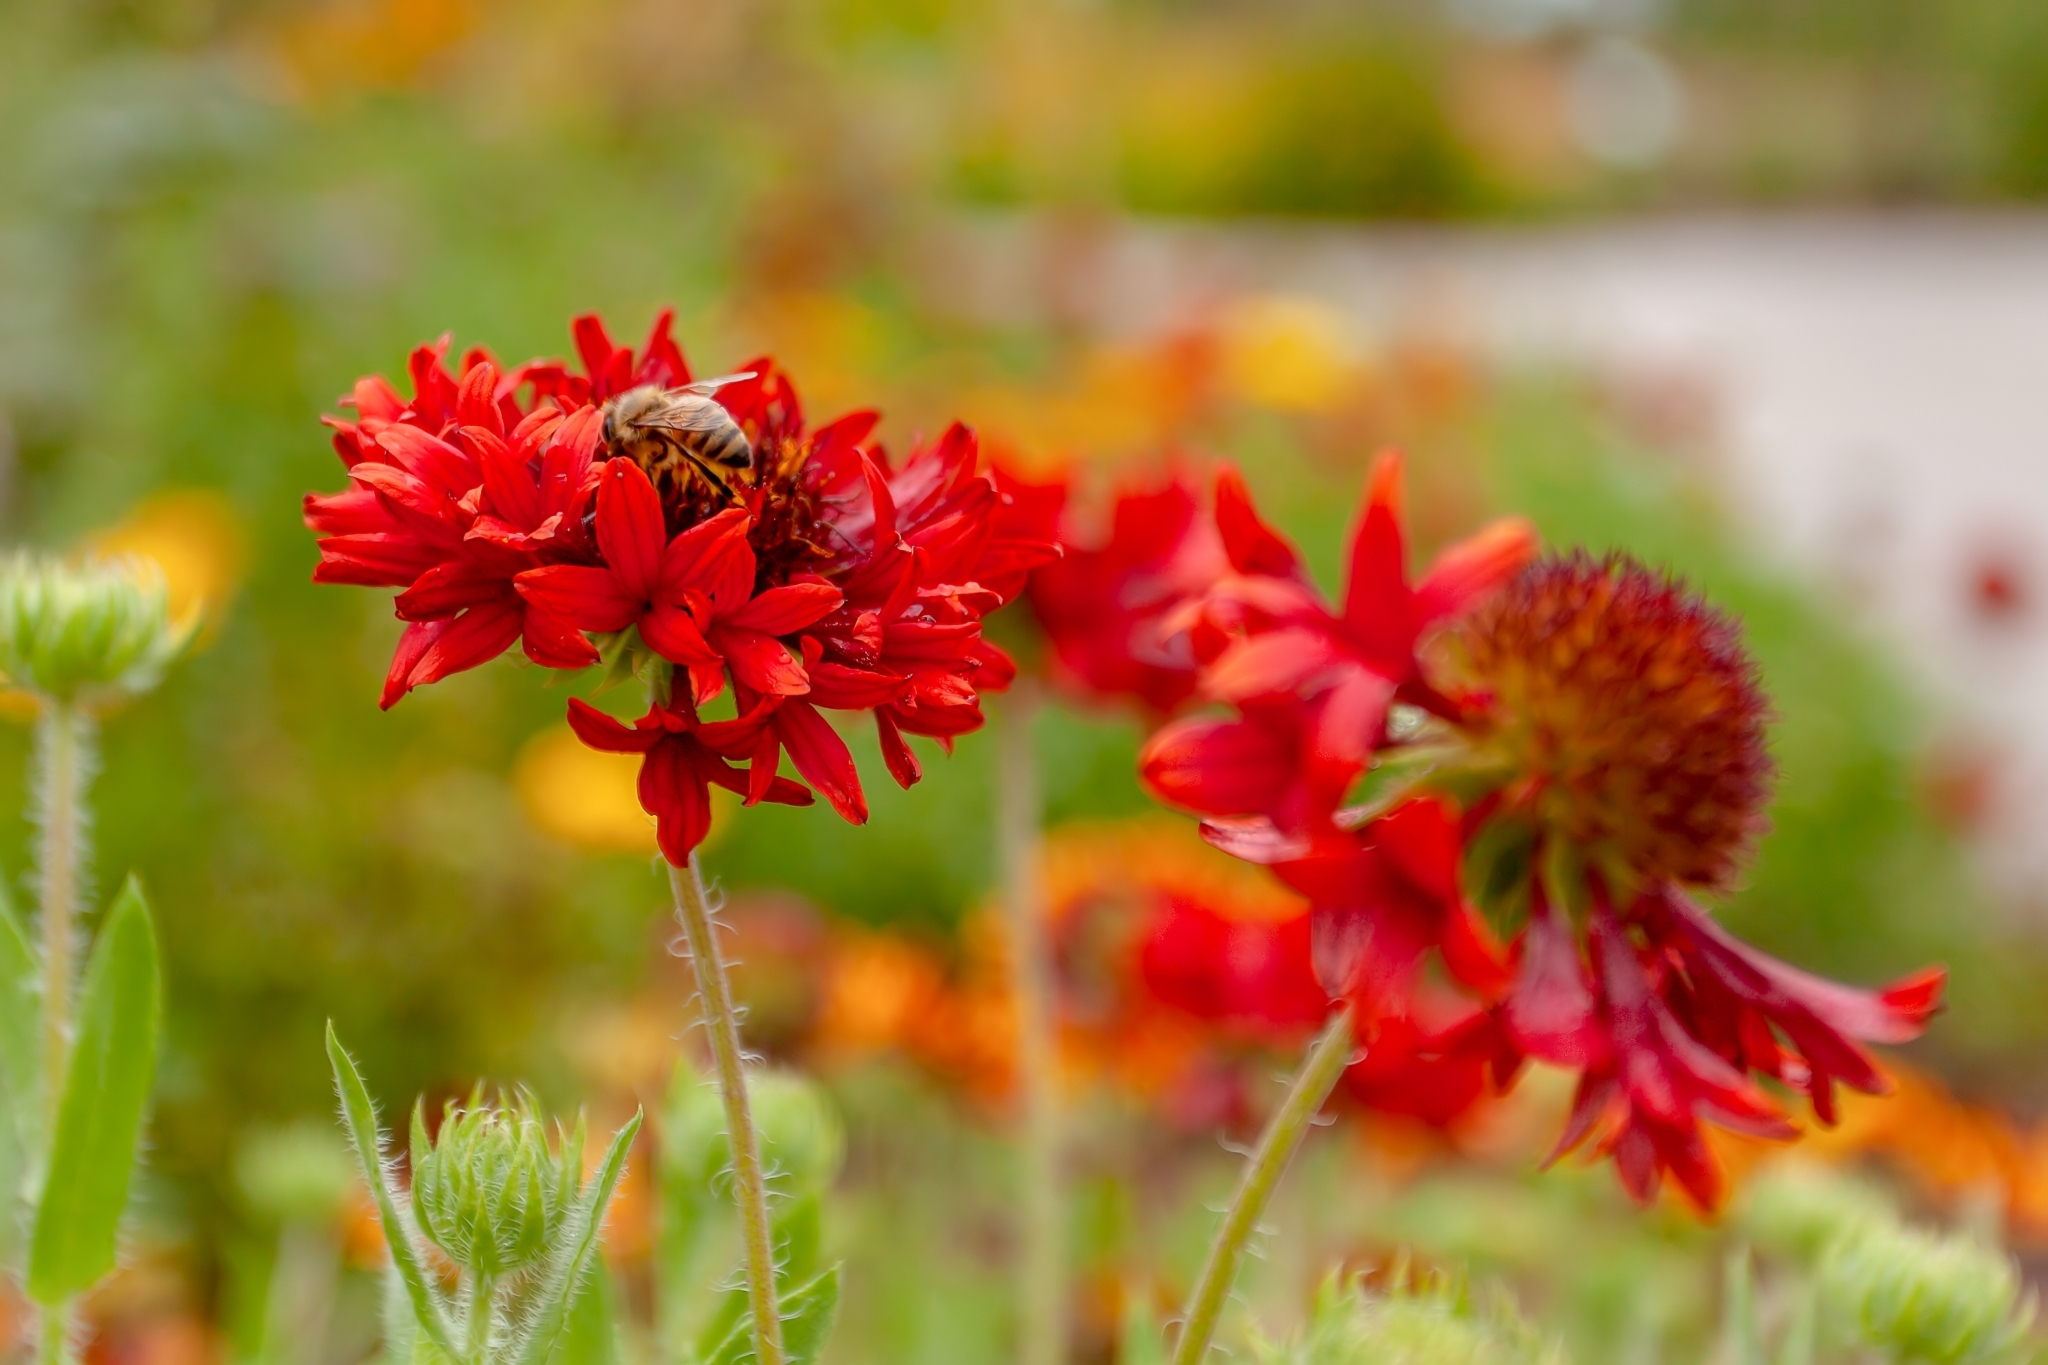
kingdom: Animalia
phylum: Arthropoda
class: Insecta
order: Hymenoptera
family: Apidae
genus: Apis
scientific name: Apis mellifera
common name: Honey bee
